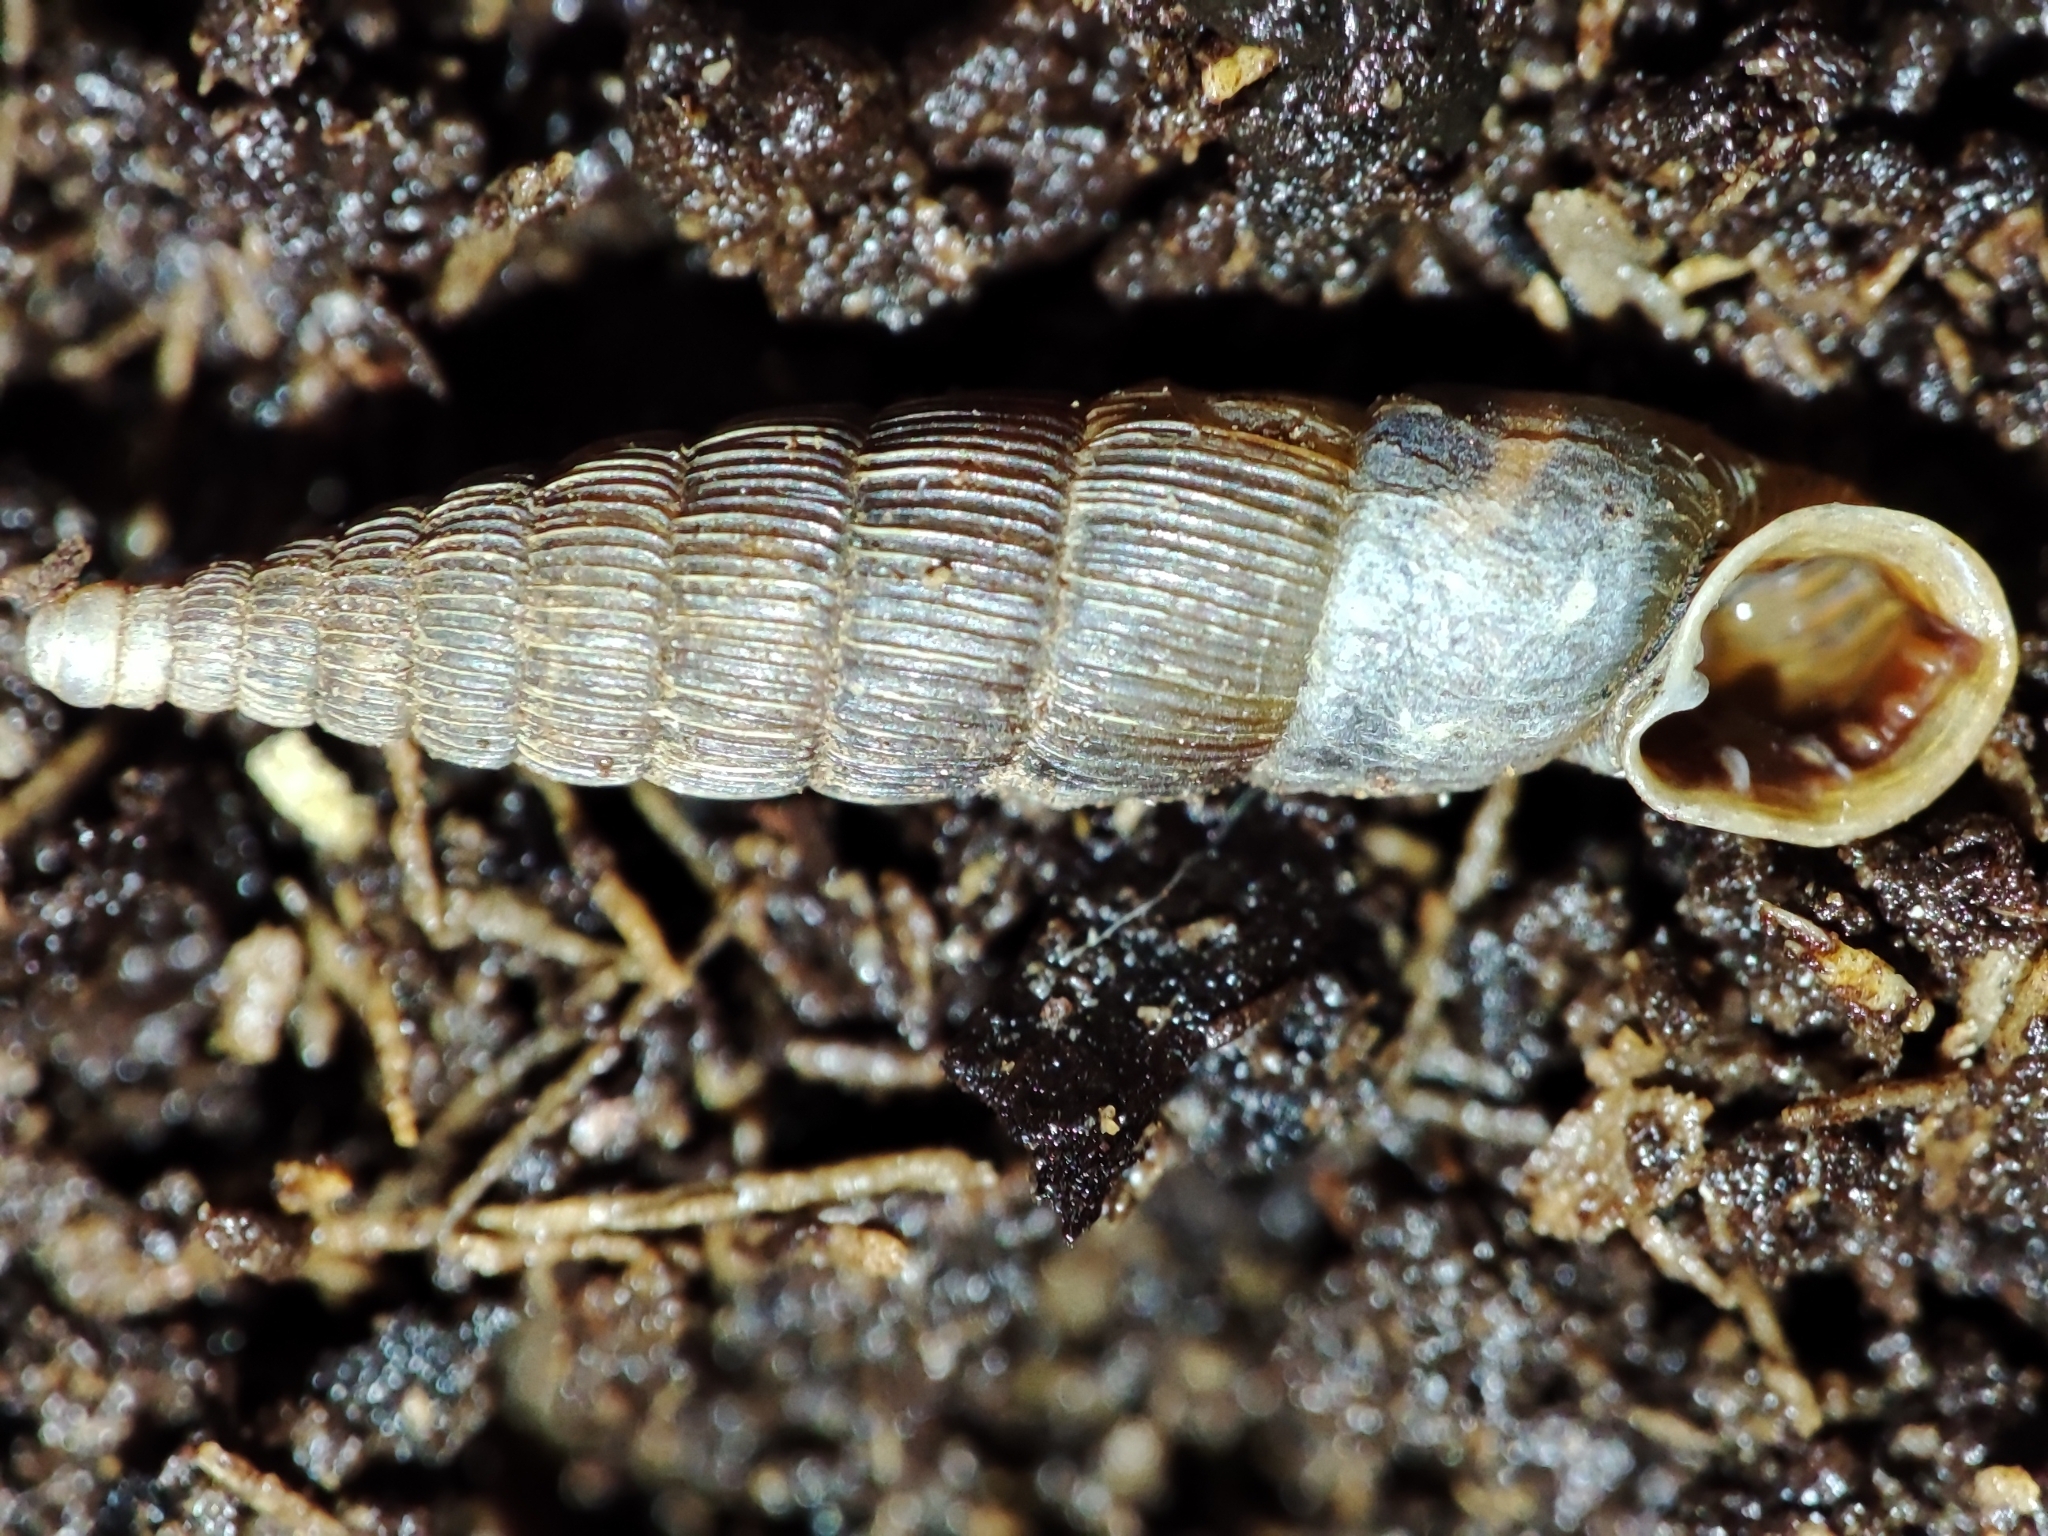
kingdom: Animalia
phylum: Mollusca
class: Gastropoda
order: Stylommatophora
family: Clausiliidae
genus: Laciniaria
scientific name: Laciniaria plicata
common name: Single-lipped door snail
